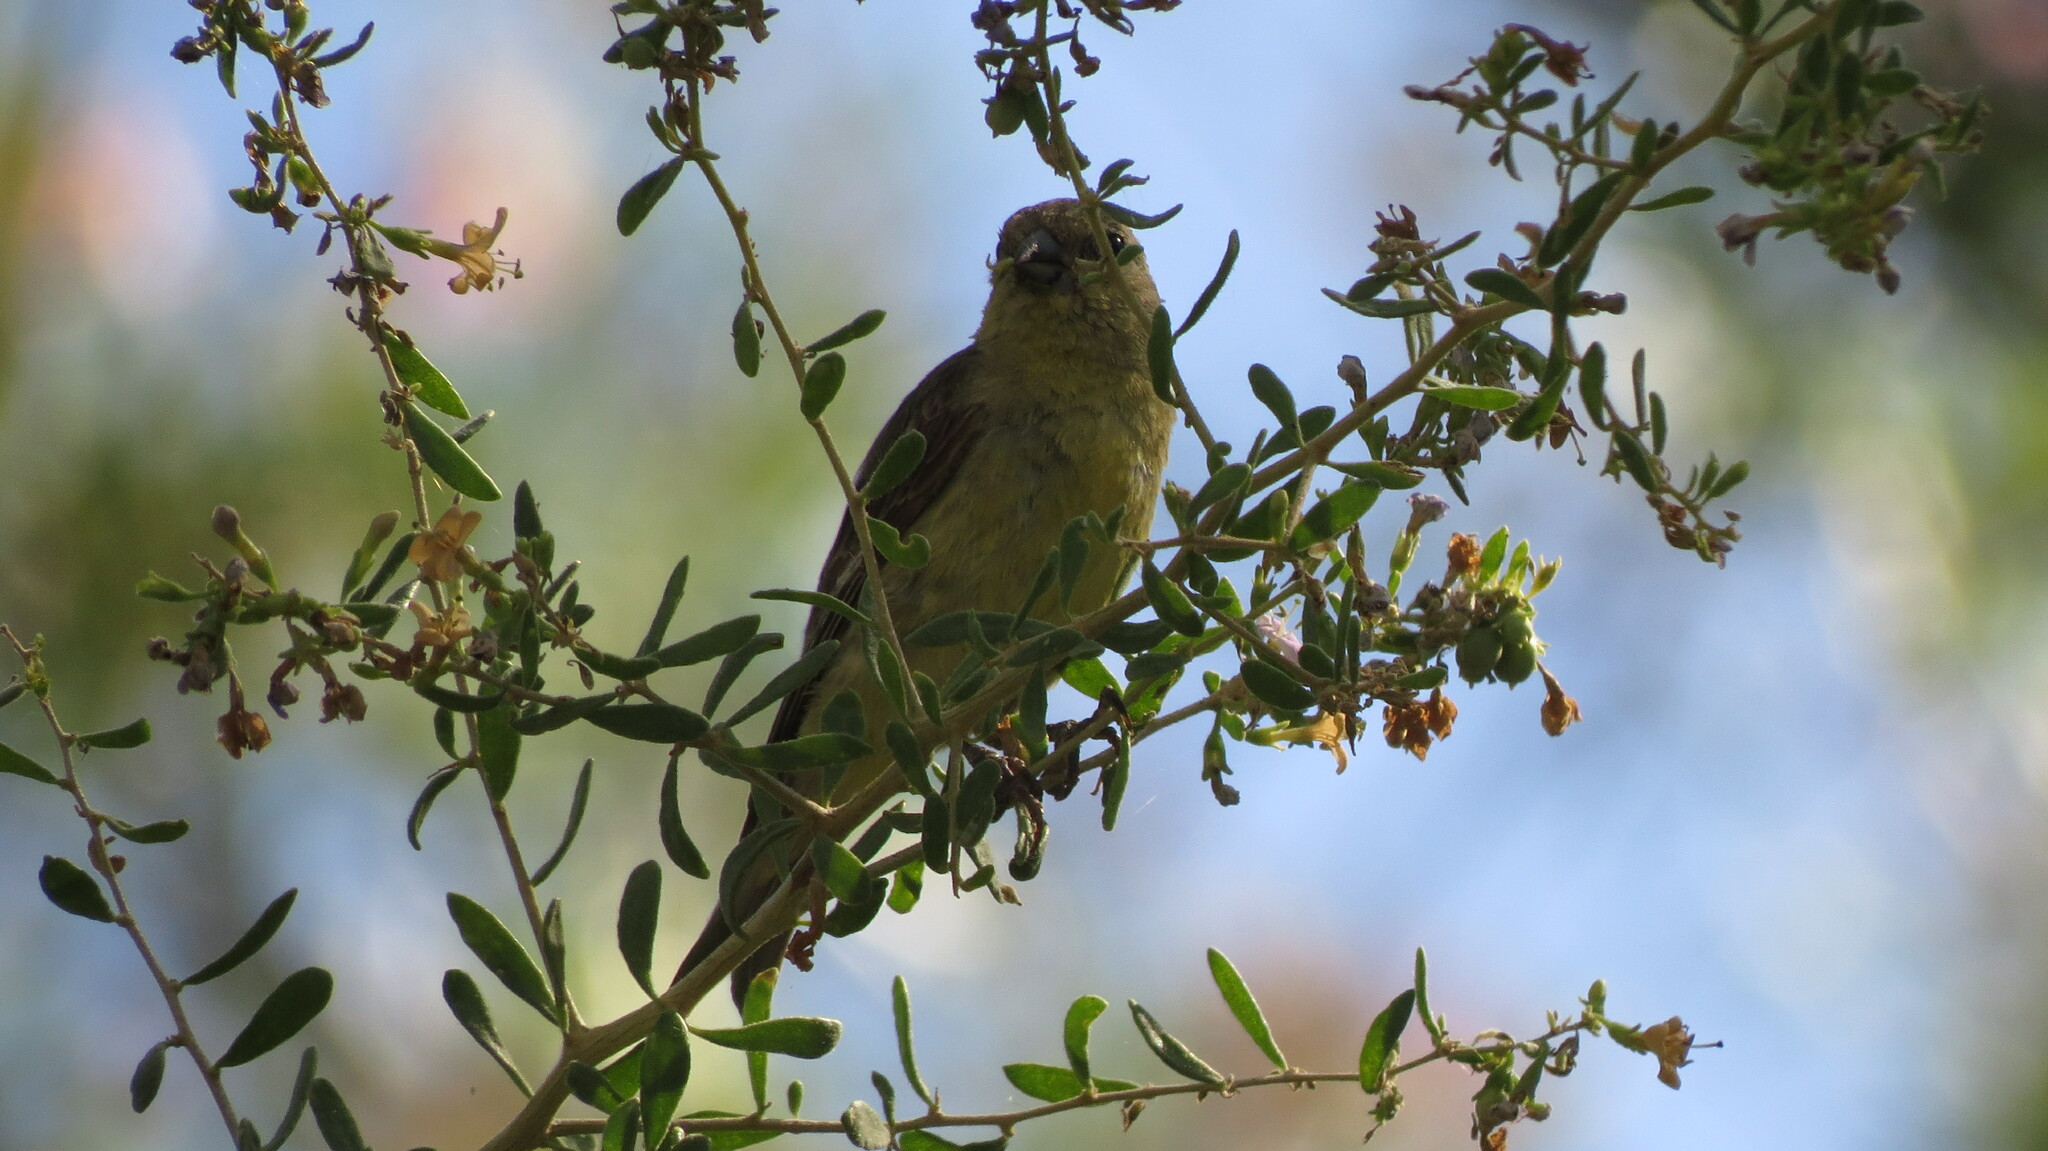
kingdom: Animalia
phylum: Chordata
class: Aves
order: Passeriformes
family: Fringillidae
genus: Spinus
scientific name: Spinus psaltria
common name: Lesser goldfinch
